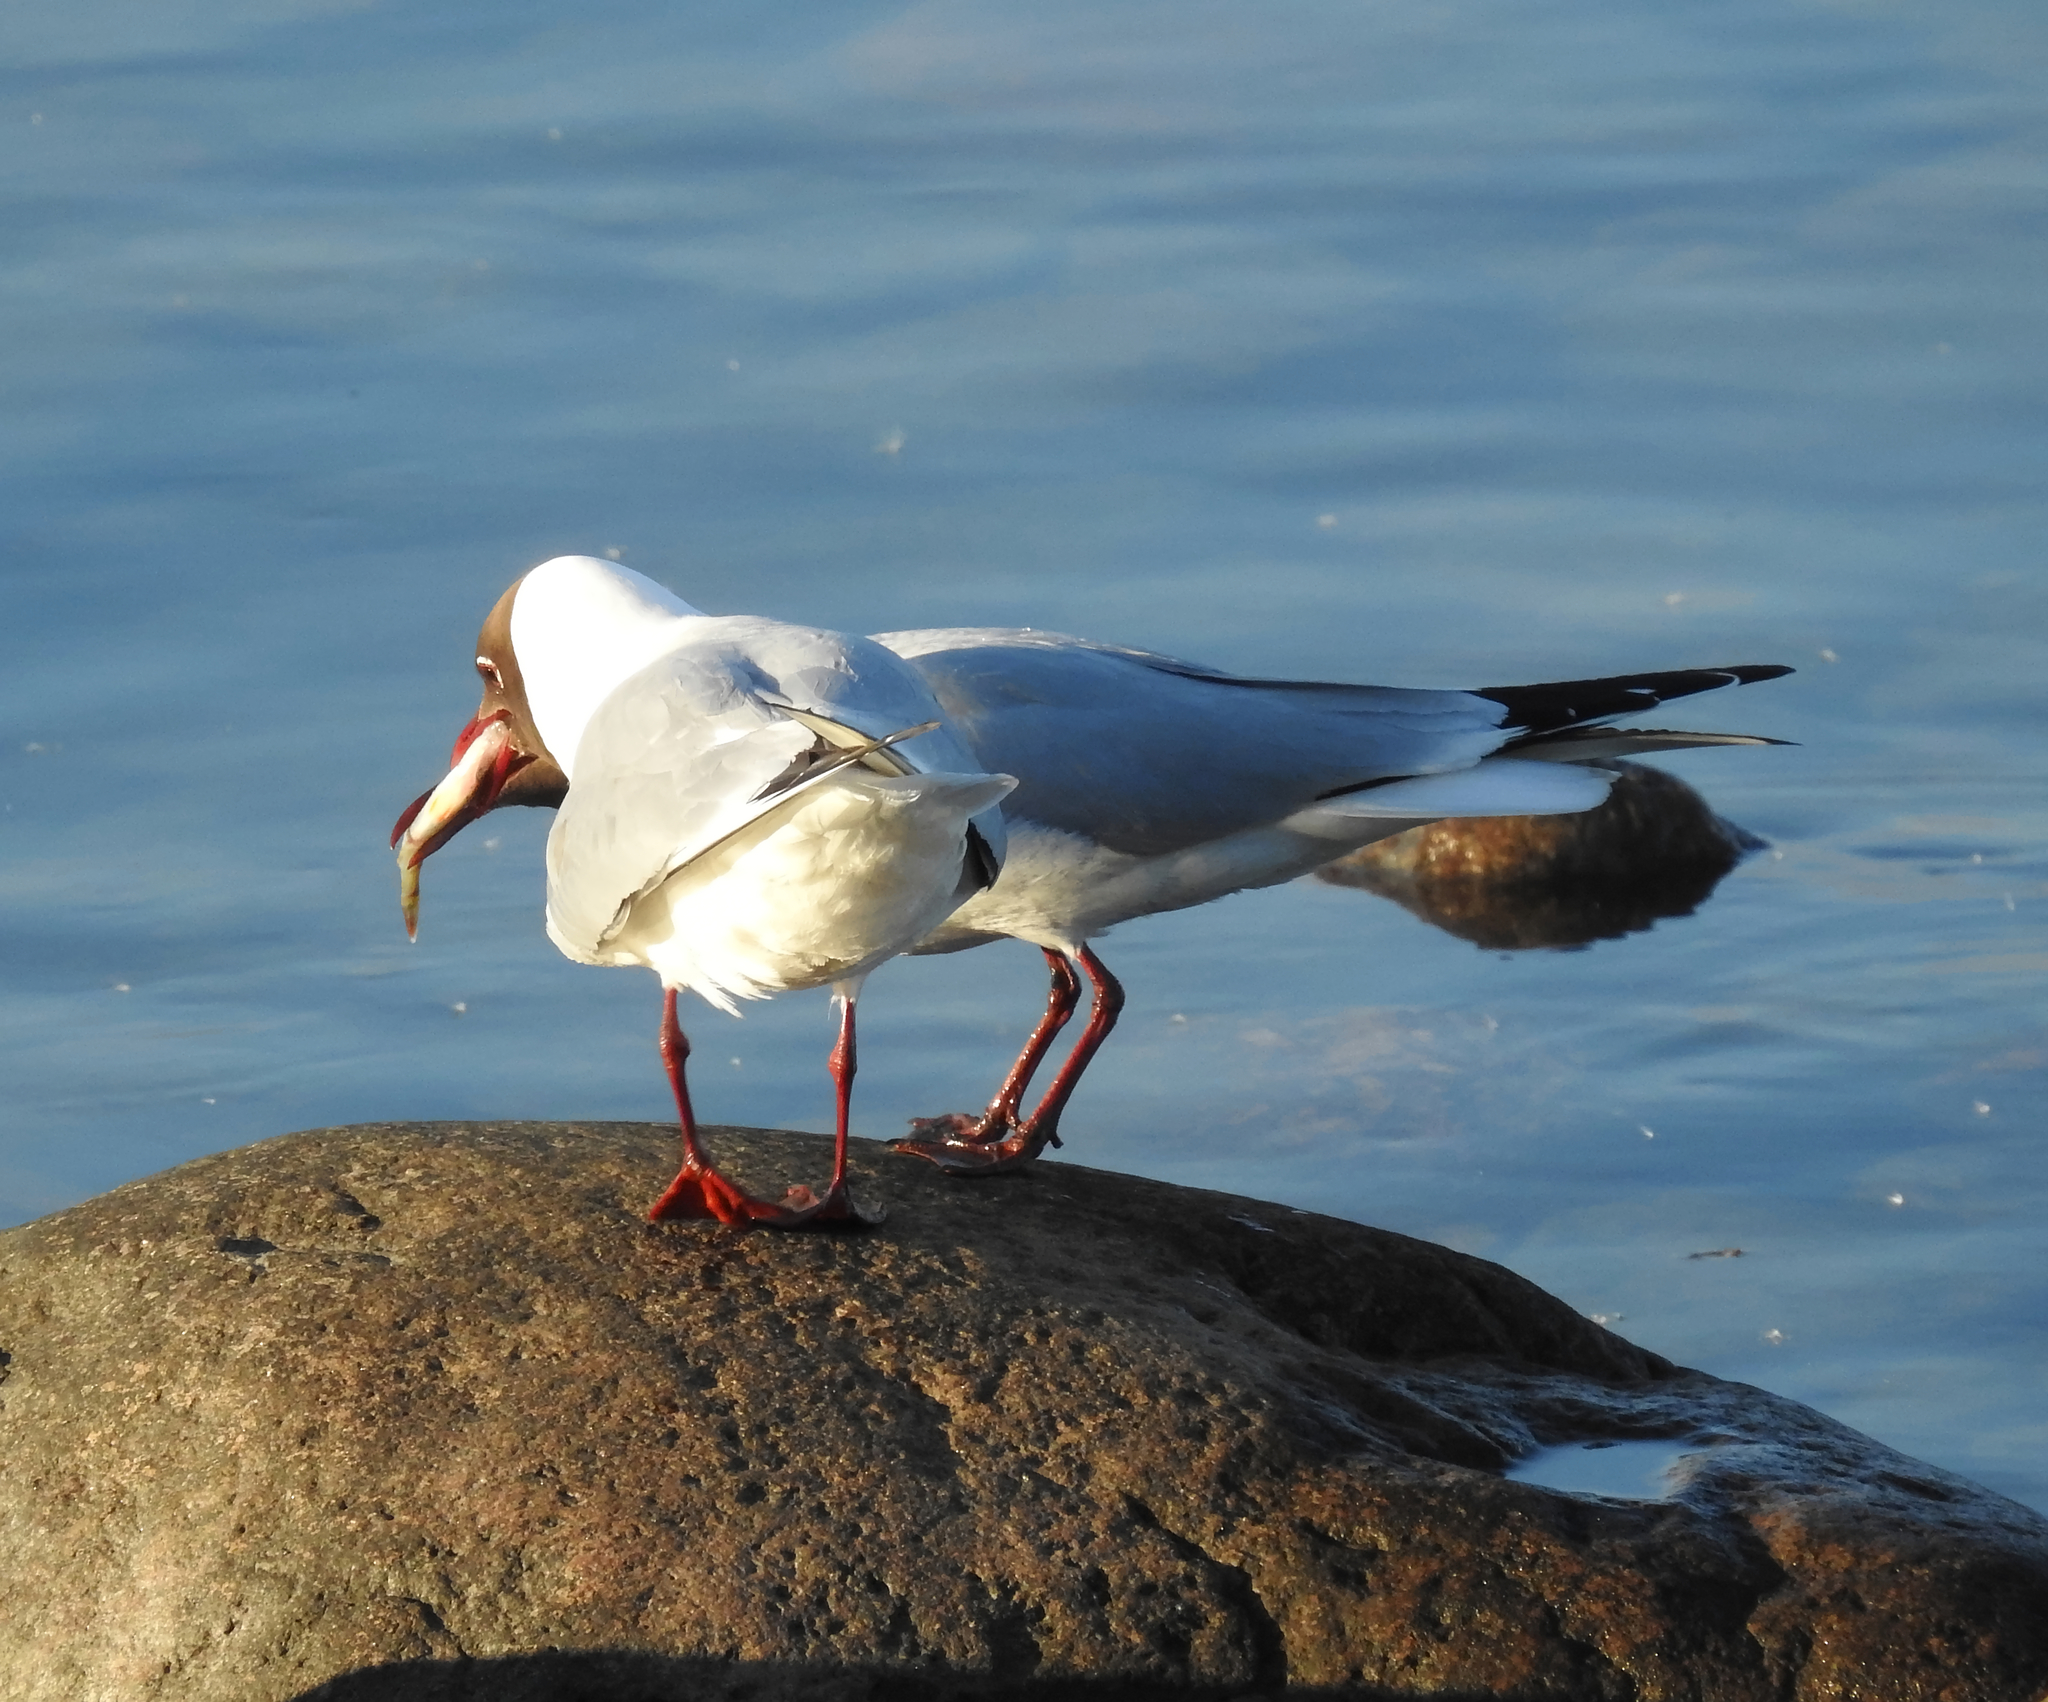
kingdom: Animalia
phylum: Chordata
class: Aves
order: Charadriiformes
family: Laridae
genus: Chroicocephalus
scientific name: Chroicocephalus ridibundus
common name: Black-headed gull
